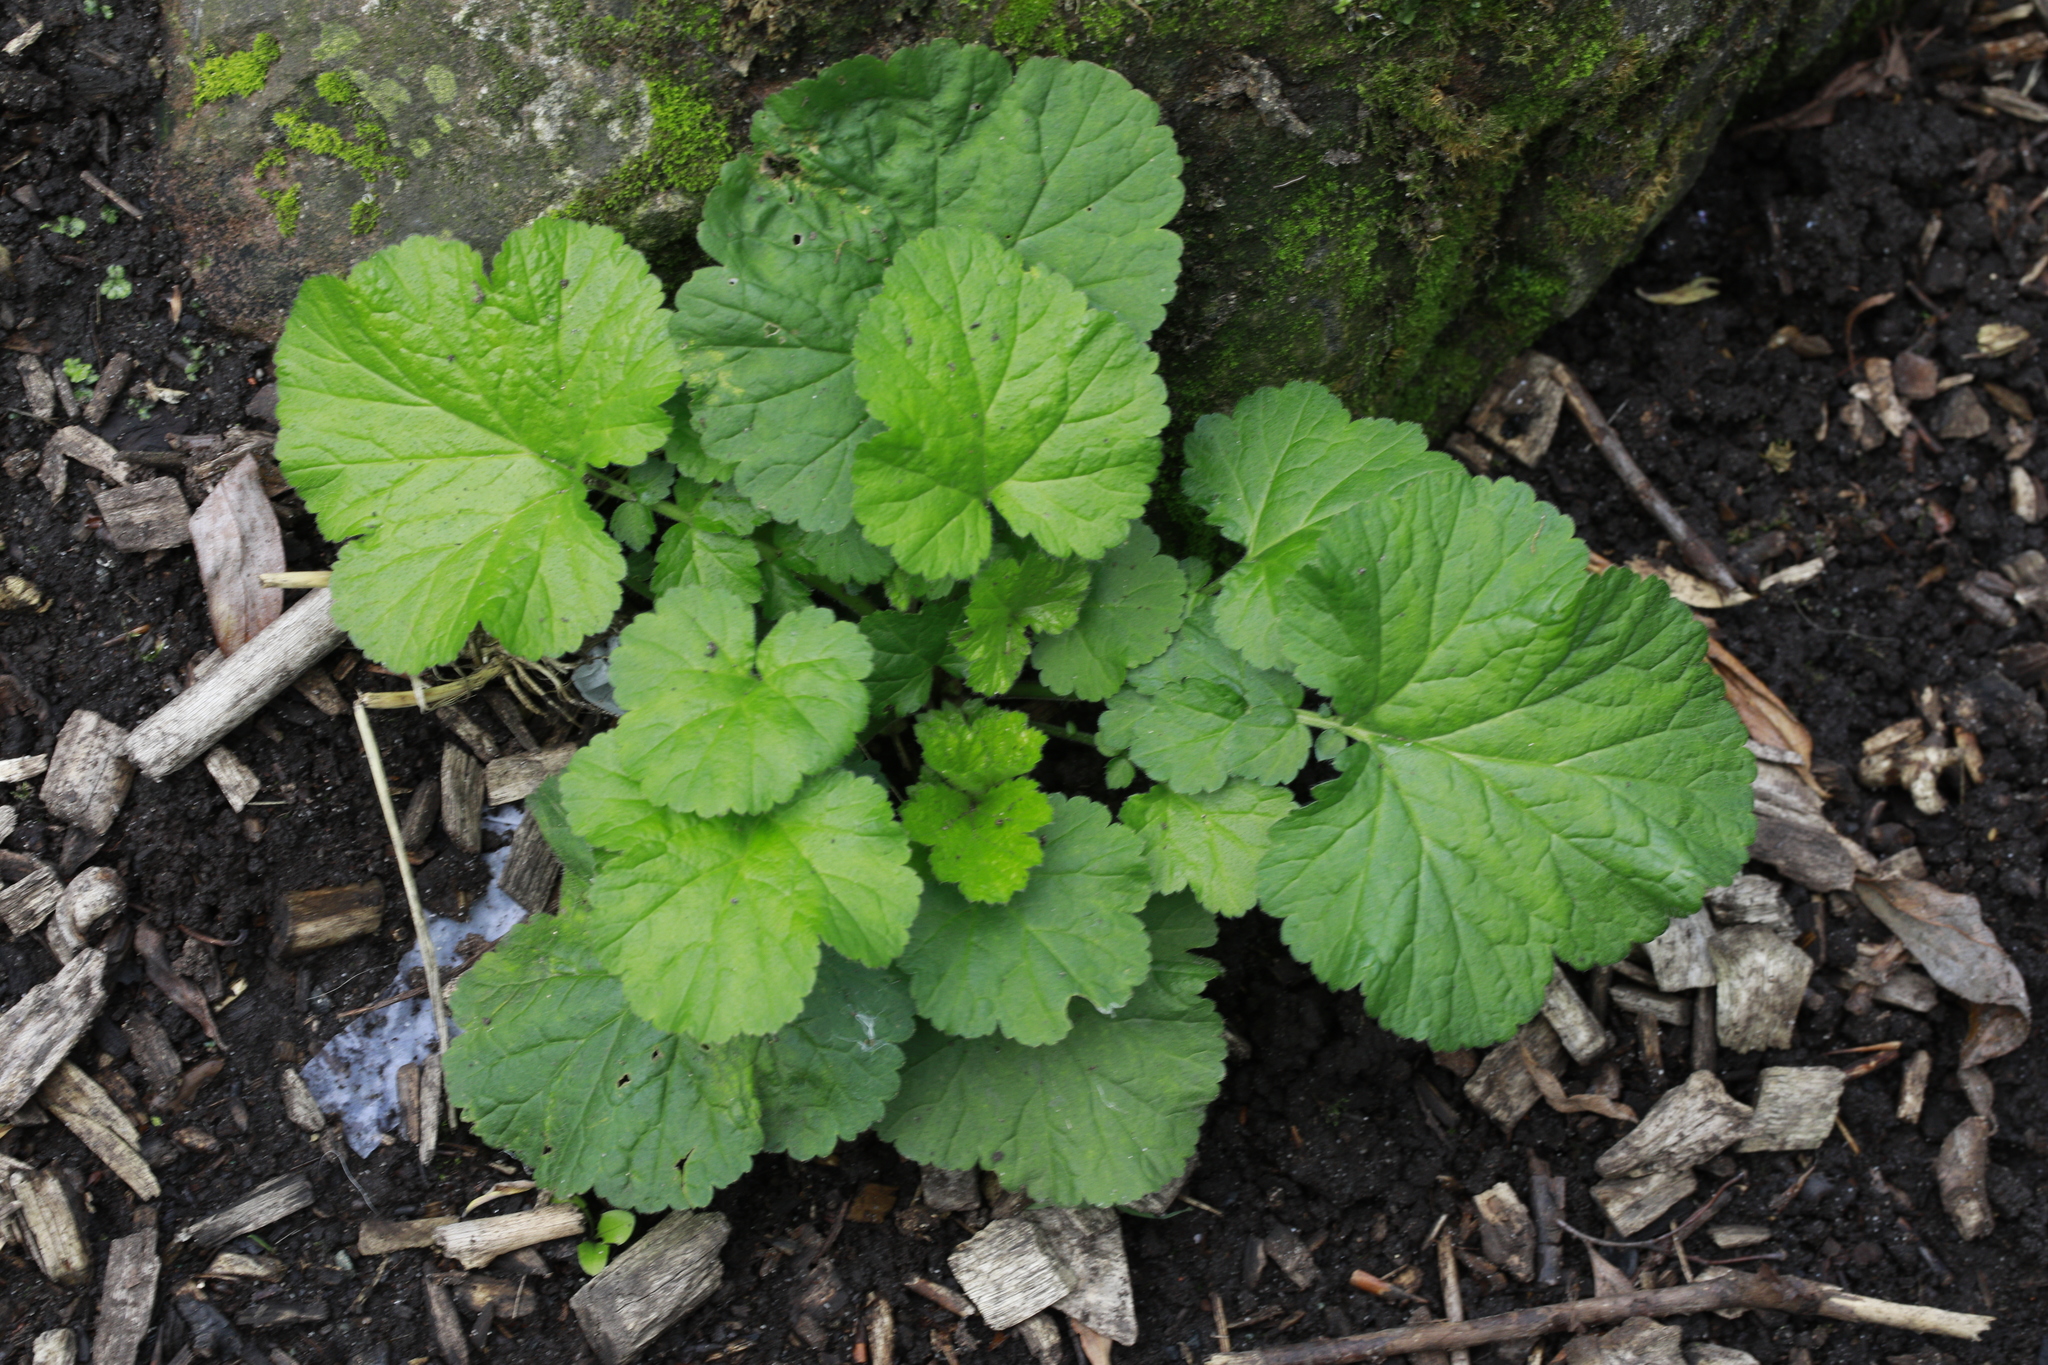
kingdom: Plantae
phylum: Tracheophyta
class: Magnoliopsida
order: Rosales
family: Rosaceae
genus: Geum
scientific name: Geum urbanum
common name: Wood avens
